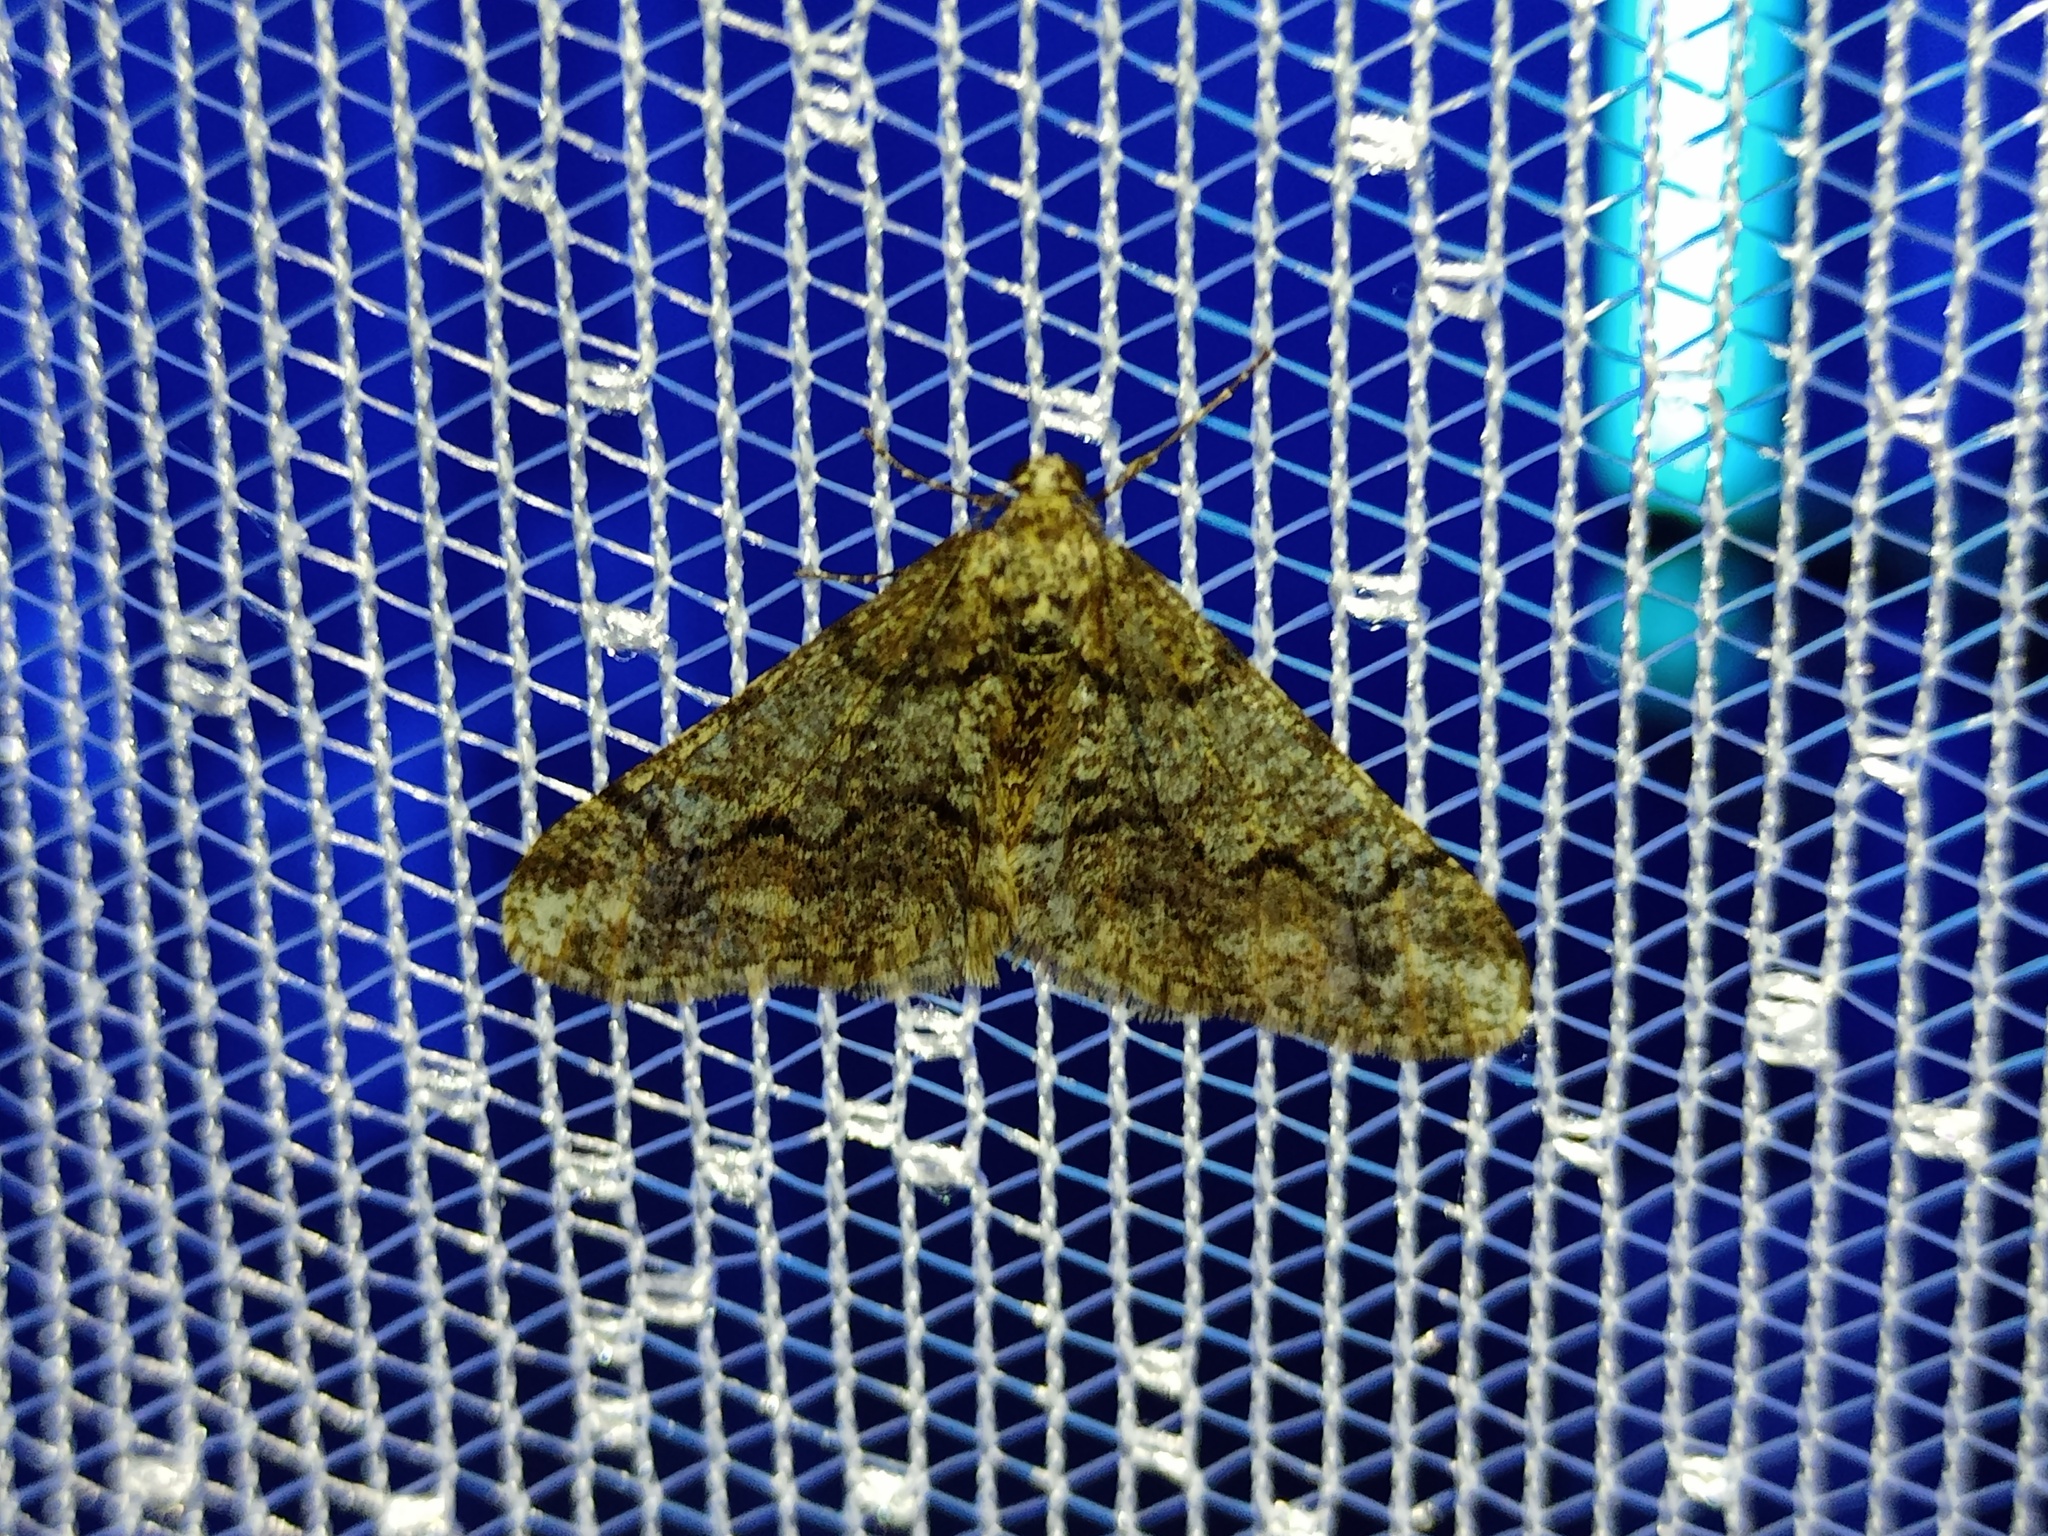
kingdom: Animalia
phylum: Arthropoda
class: Insecta
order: Lepidoptera
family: Geometridae
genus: Agriopis
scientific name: Agriopis leucophaearia
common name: Spring usher
